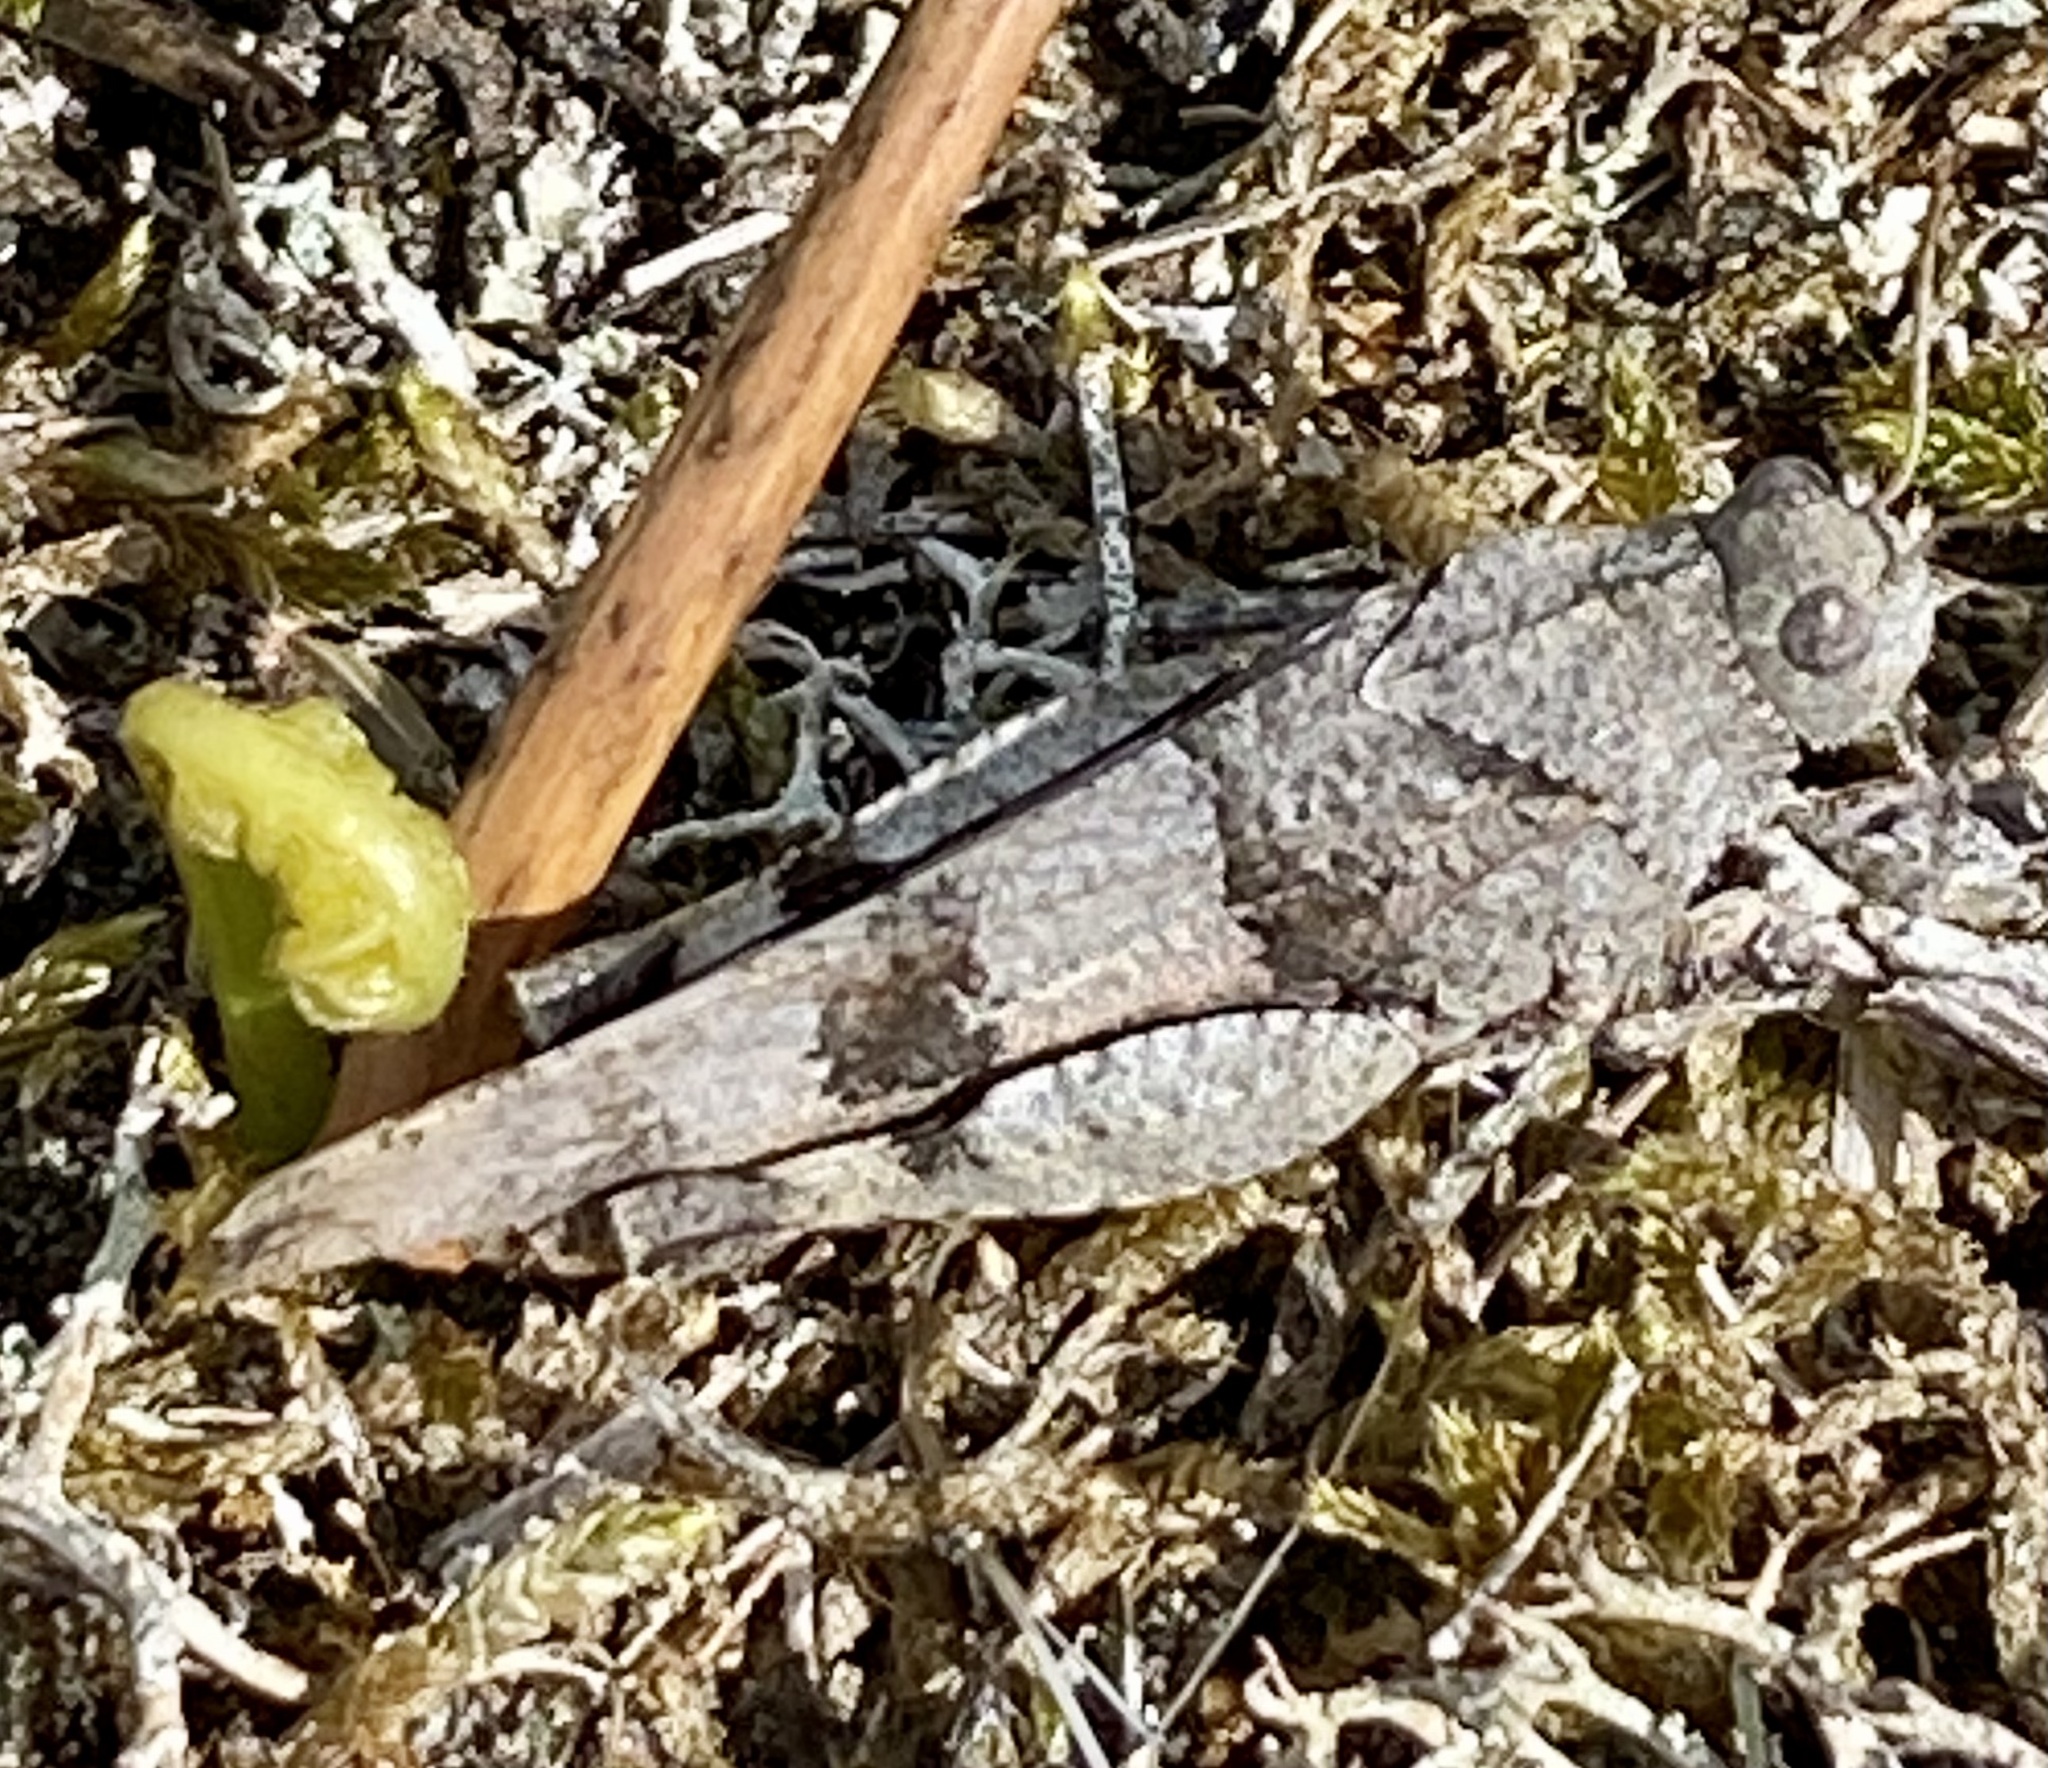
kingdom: Animalia
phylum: Arthropoda
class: Insecta
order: Orthoptera
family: Acrididae
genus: Oedipoda
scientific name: Oedipoda caerulescens
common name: Blue-winged grasshopper
